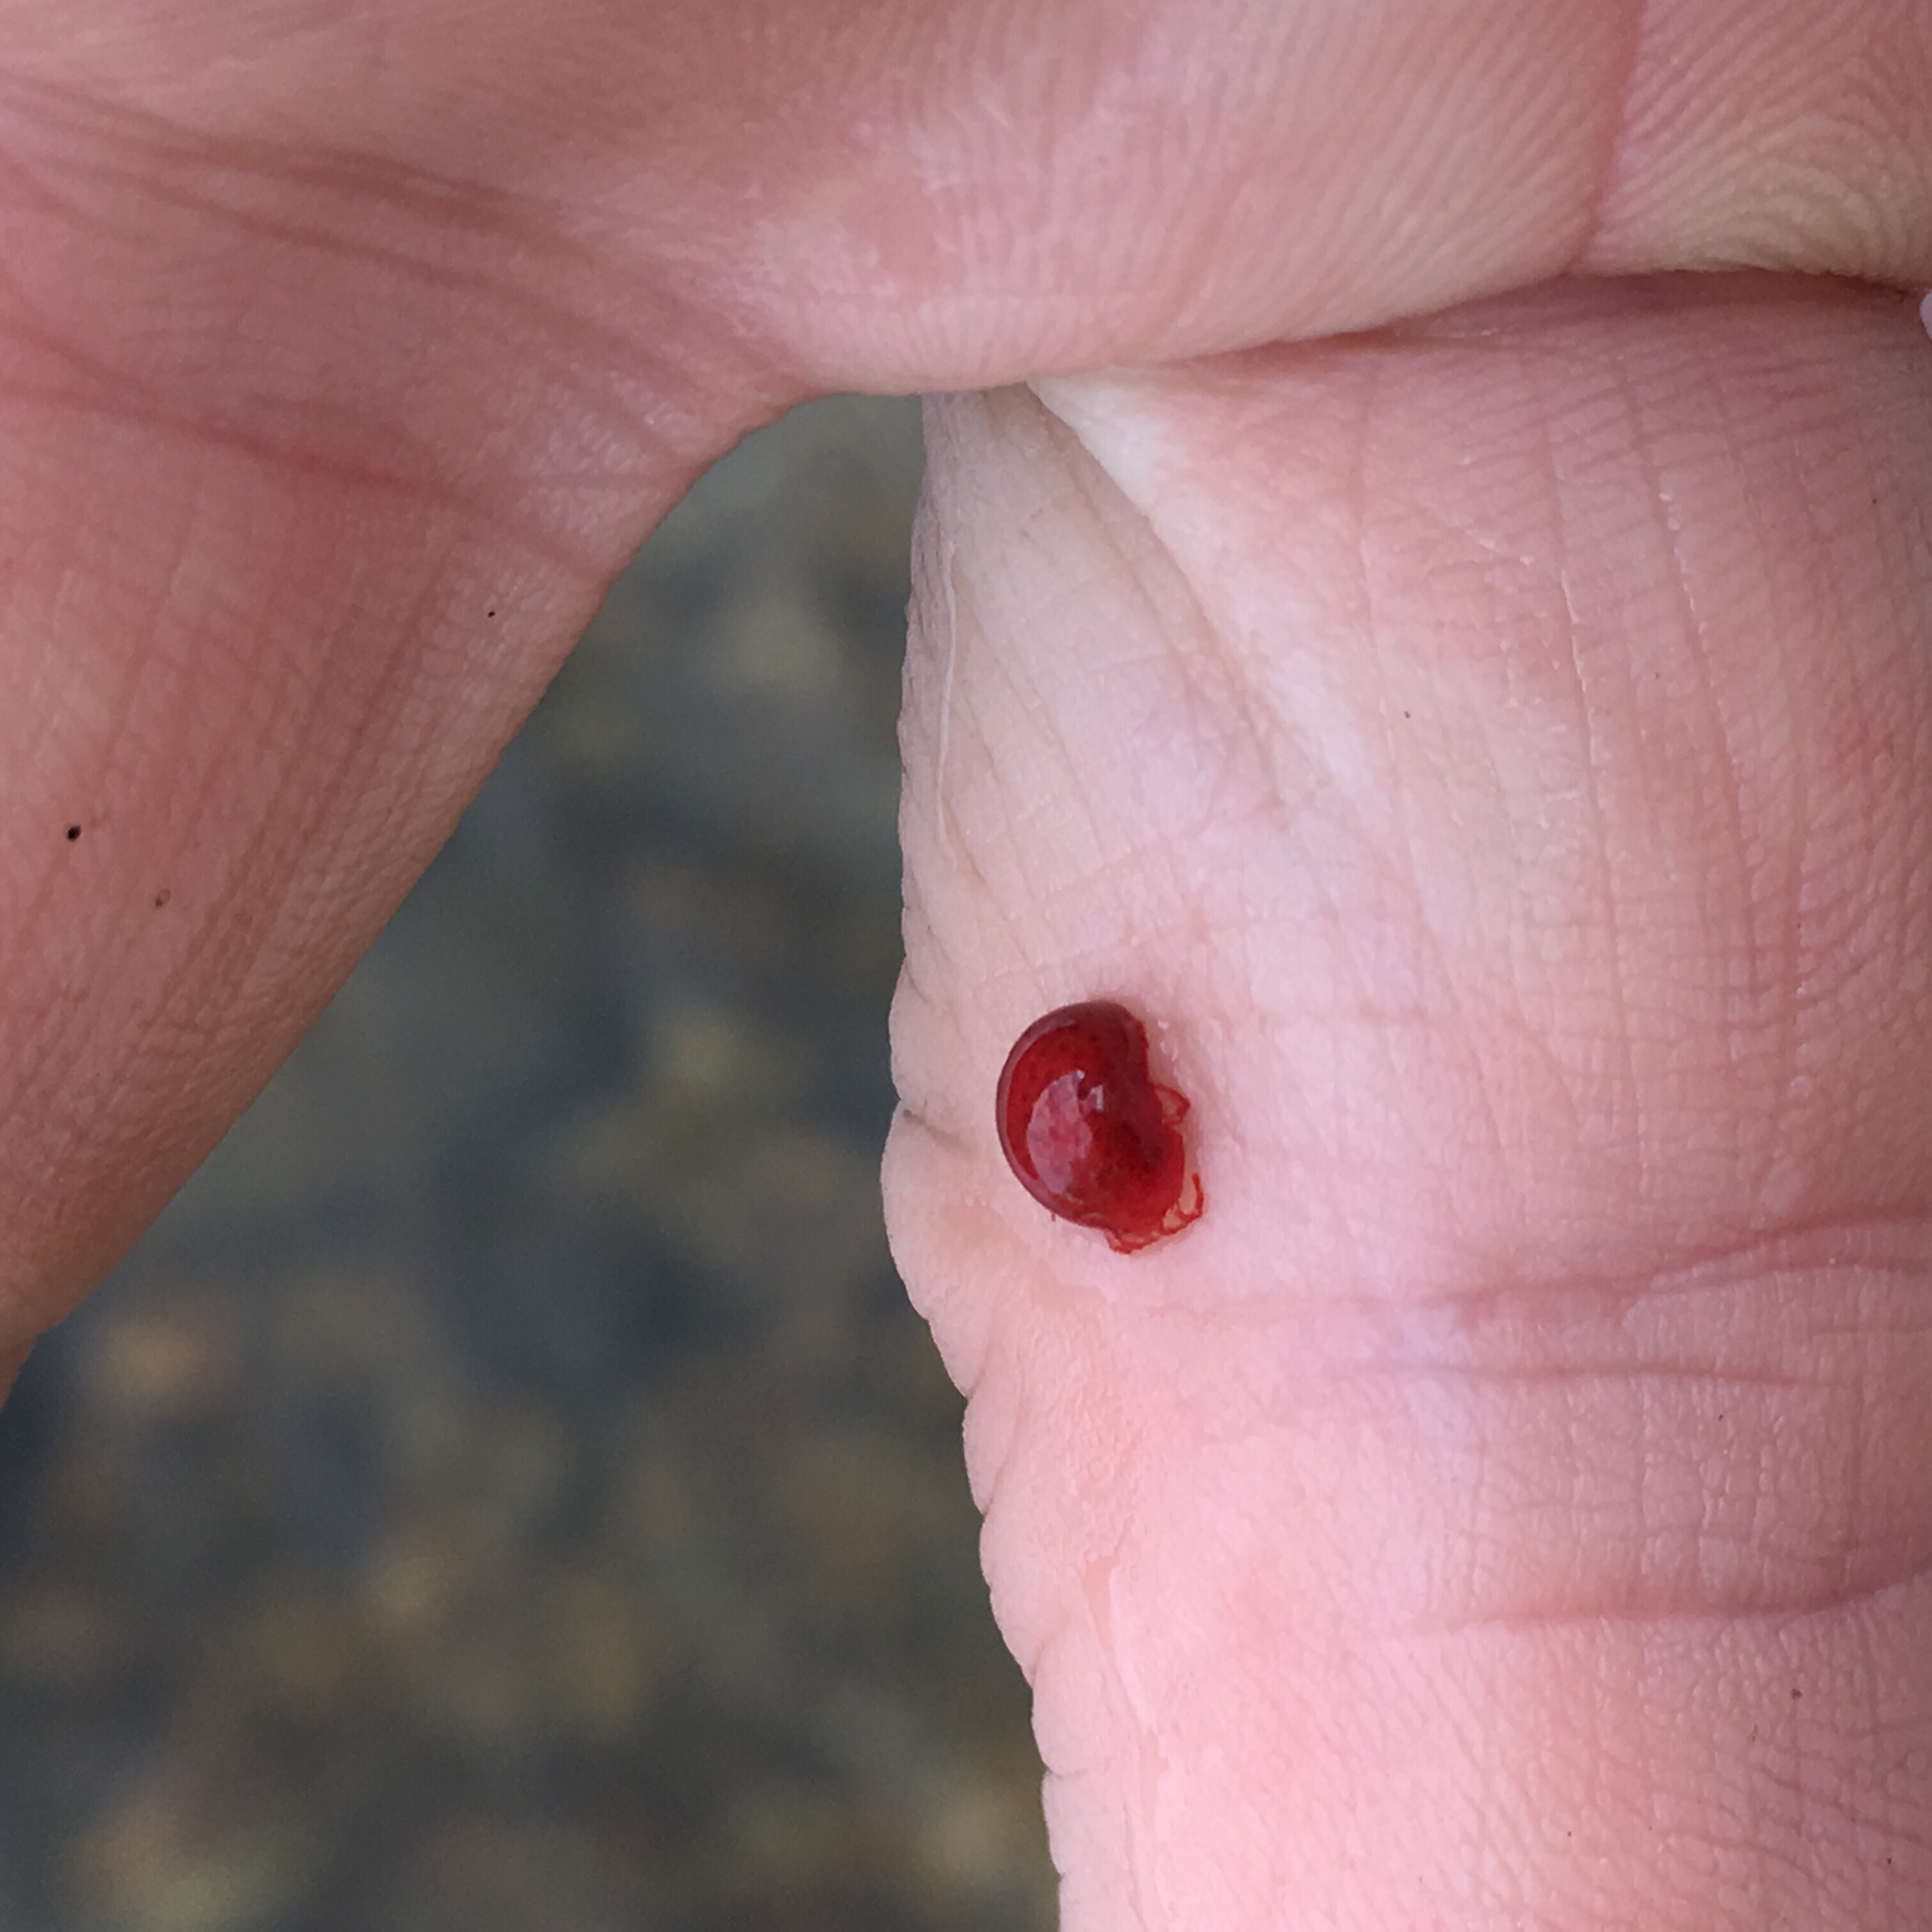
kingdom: Animalia
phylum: Arthropoda
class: Arachnida
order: Trombidiformes
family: Eylaidae
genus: Eylais
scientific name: Eylais
